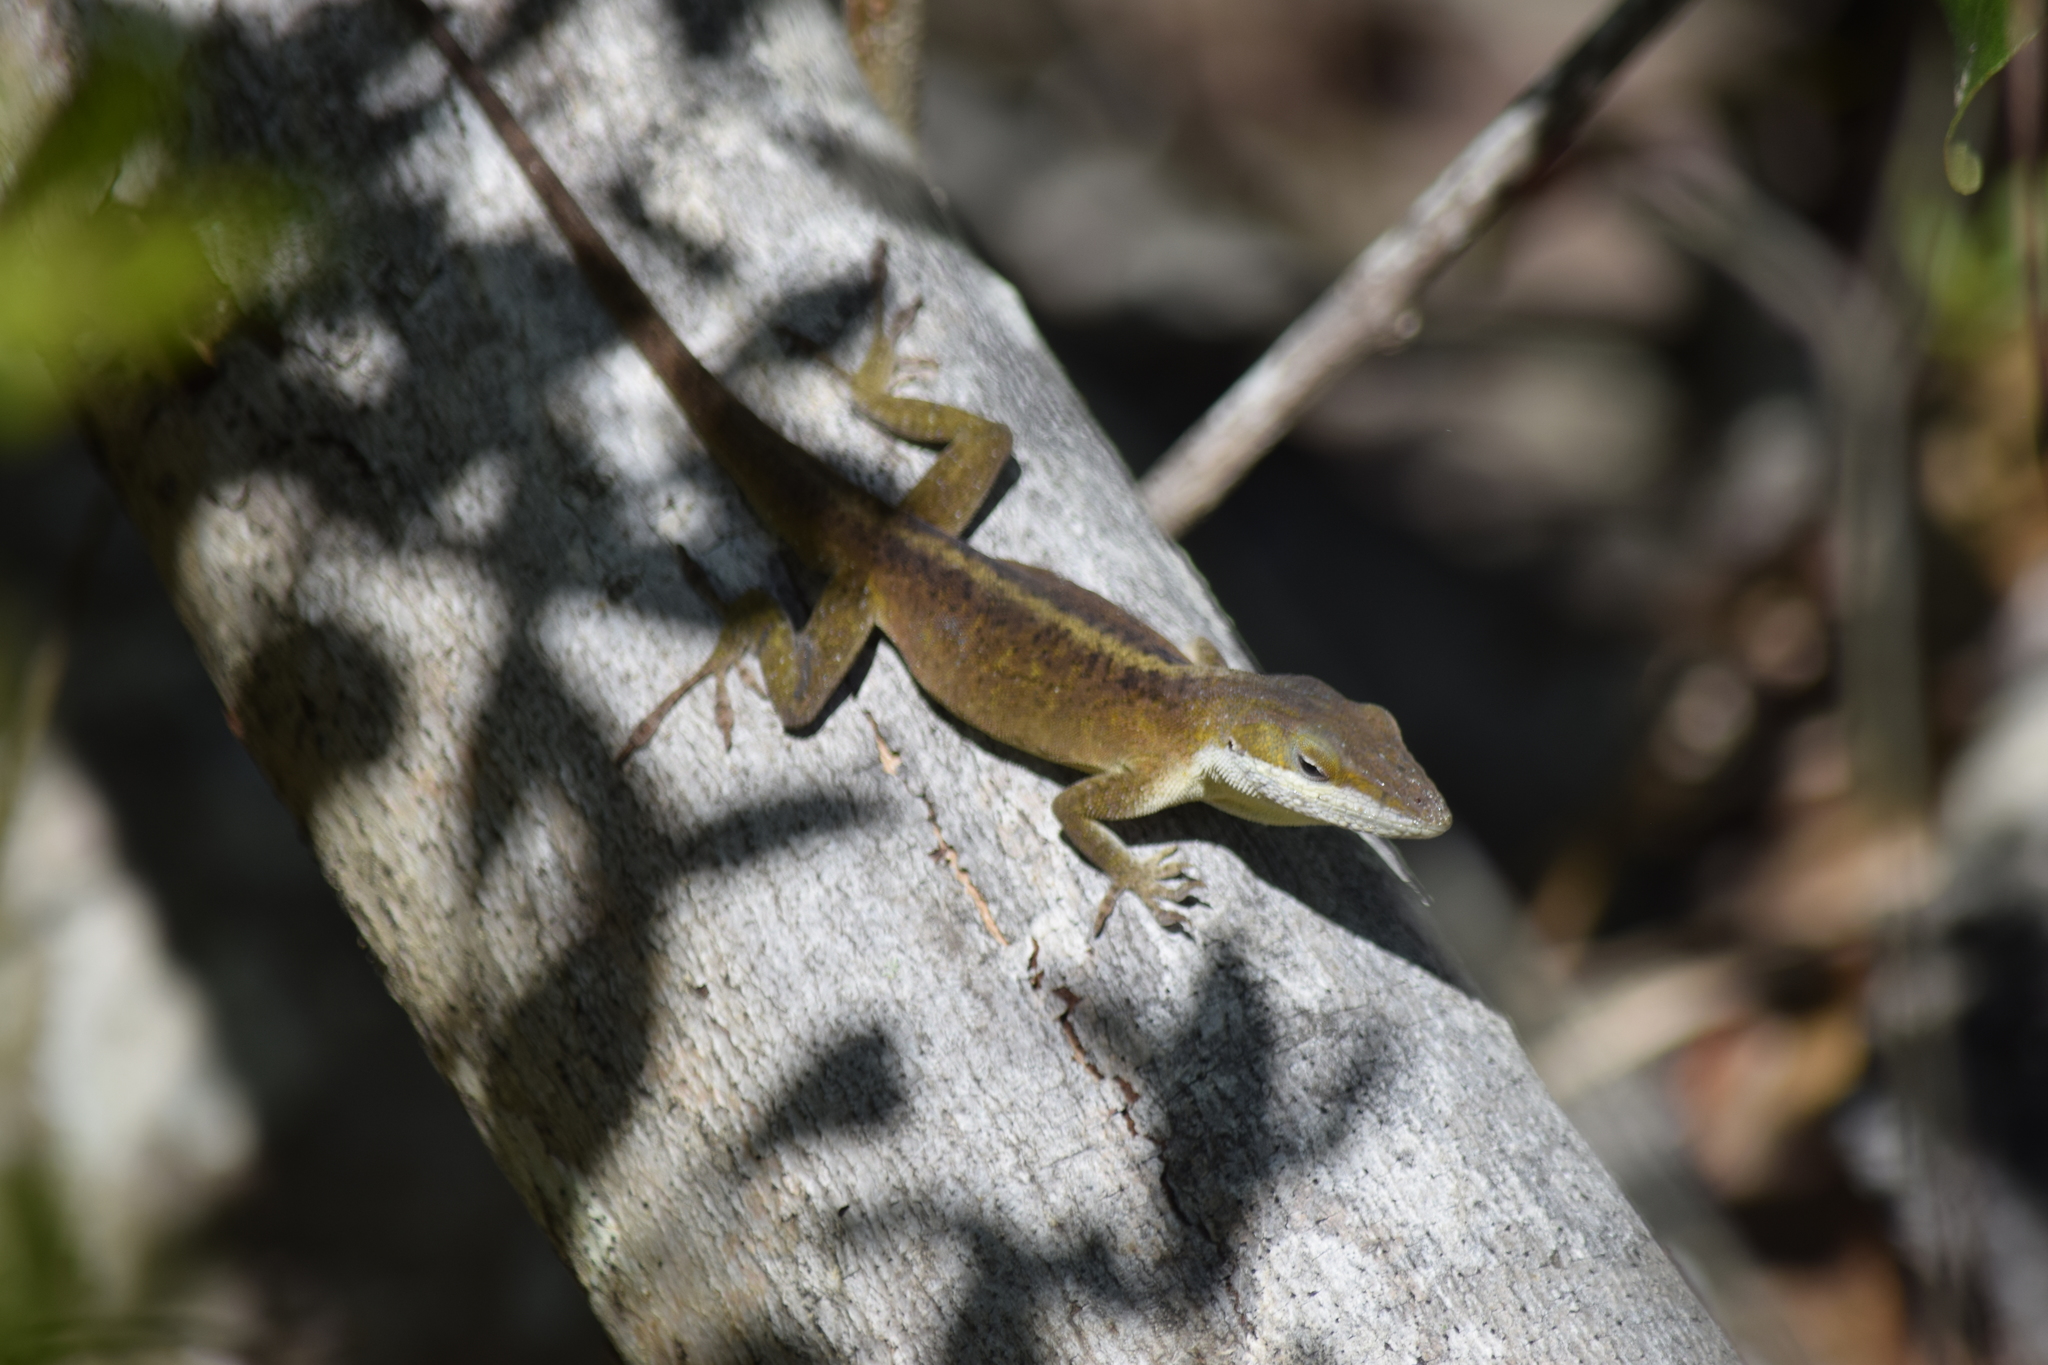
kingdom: Animalia
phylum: Chordata
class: Squamata
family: Dactyloidae
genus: Anolis
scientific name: Anolis carolinensis
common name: Green anole
